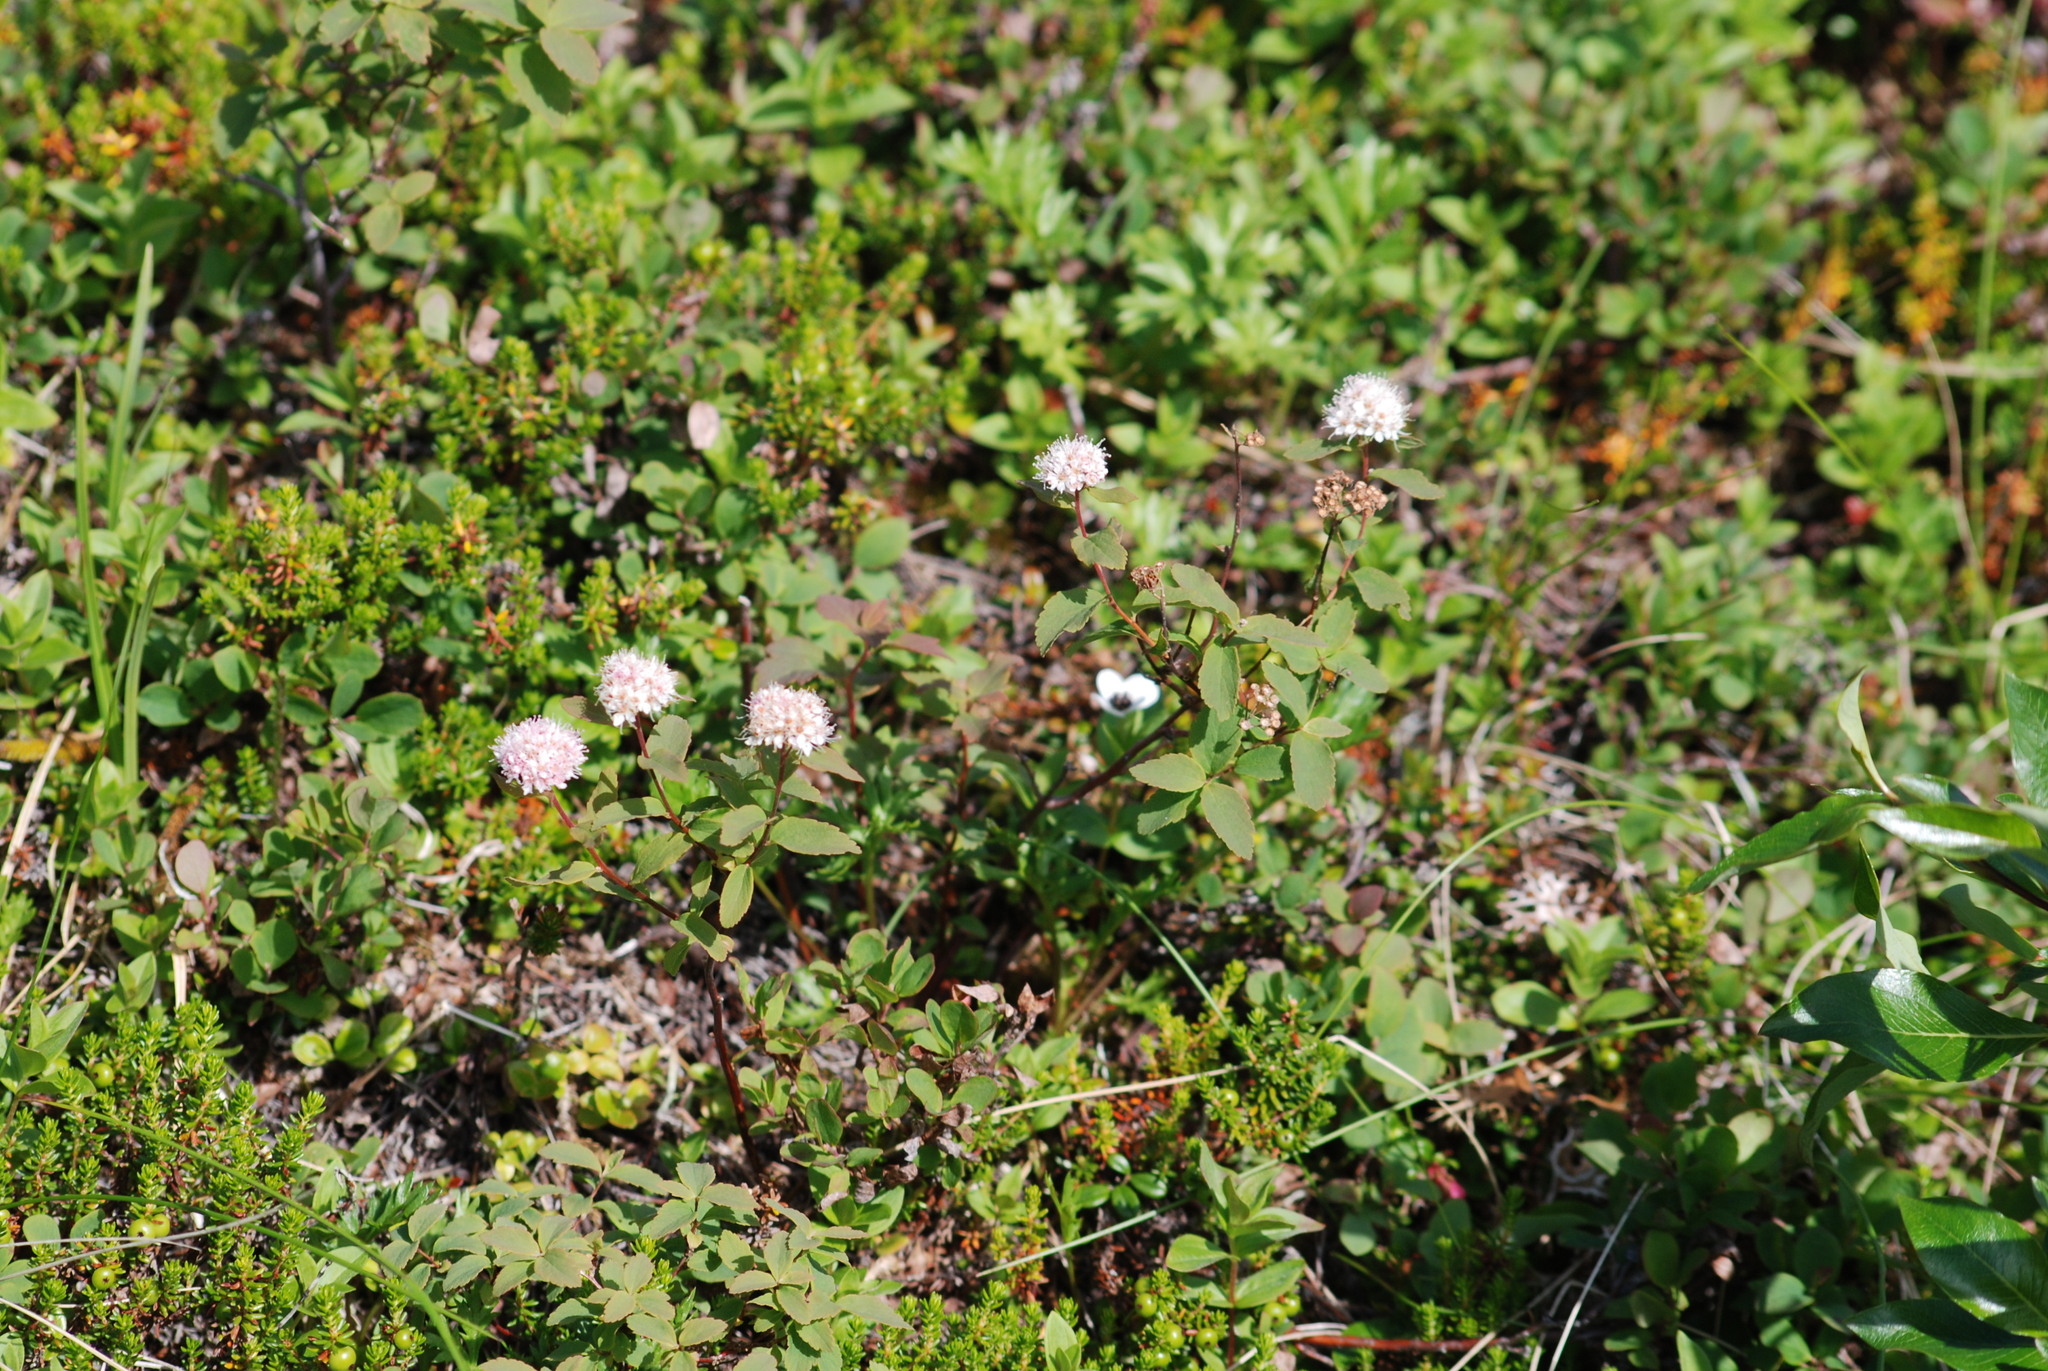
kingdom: Plantae
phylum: Tracheophyta
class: Magnoliopsida
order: Rosales
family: Rosaceae
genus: Spiraea
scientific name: Spiraea stevenii
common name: Steven's meadowsweet
